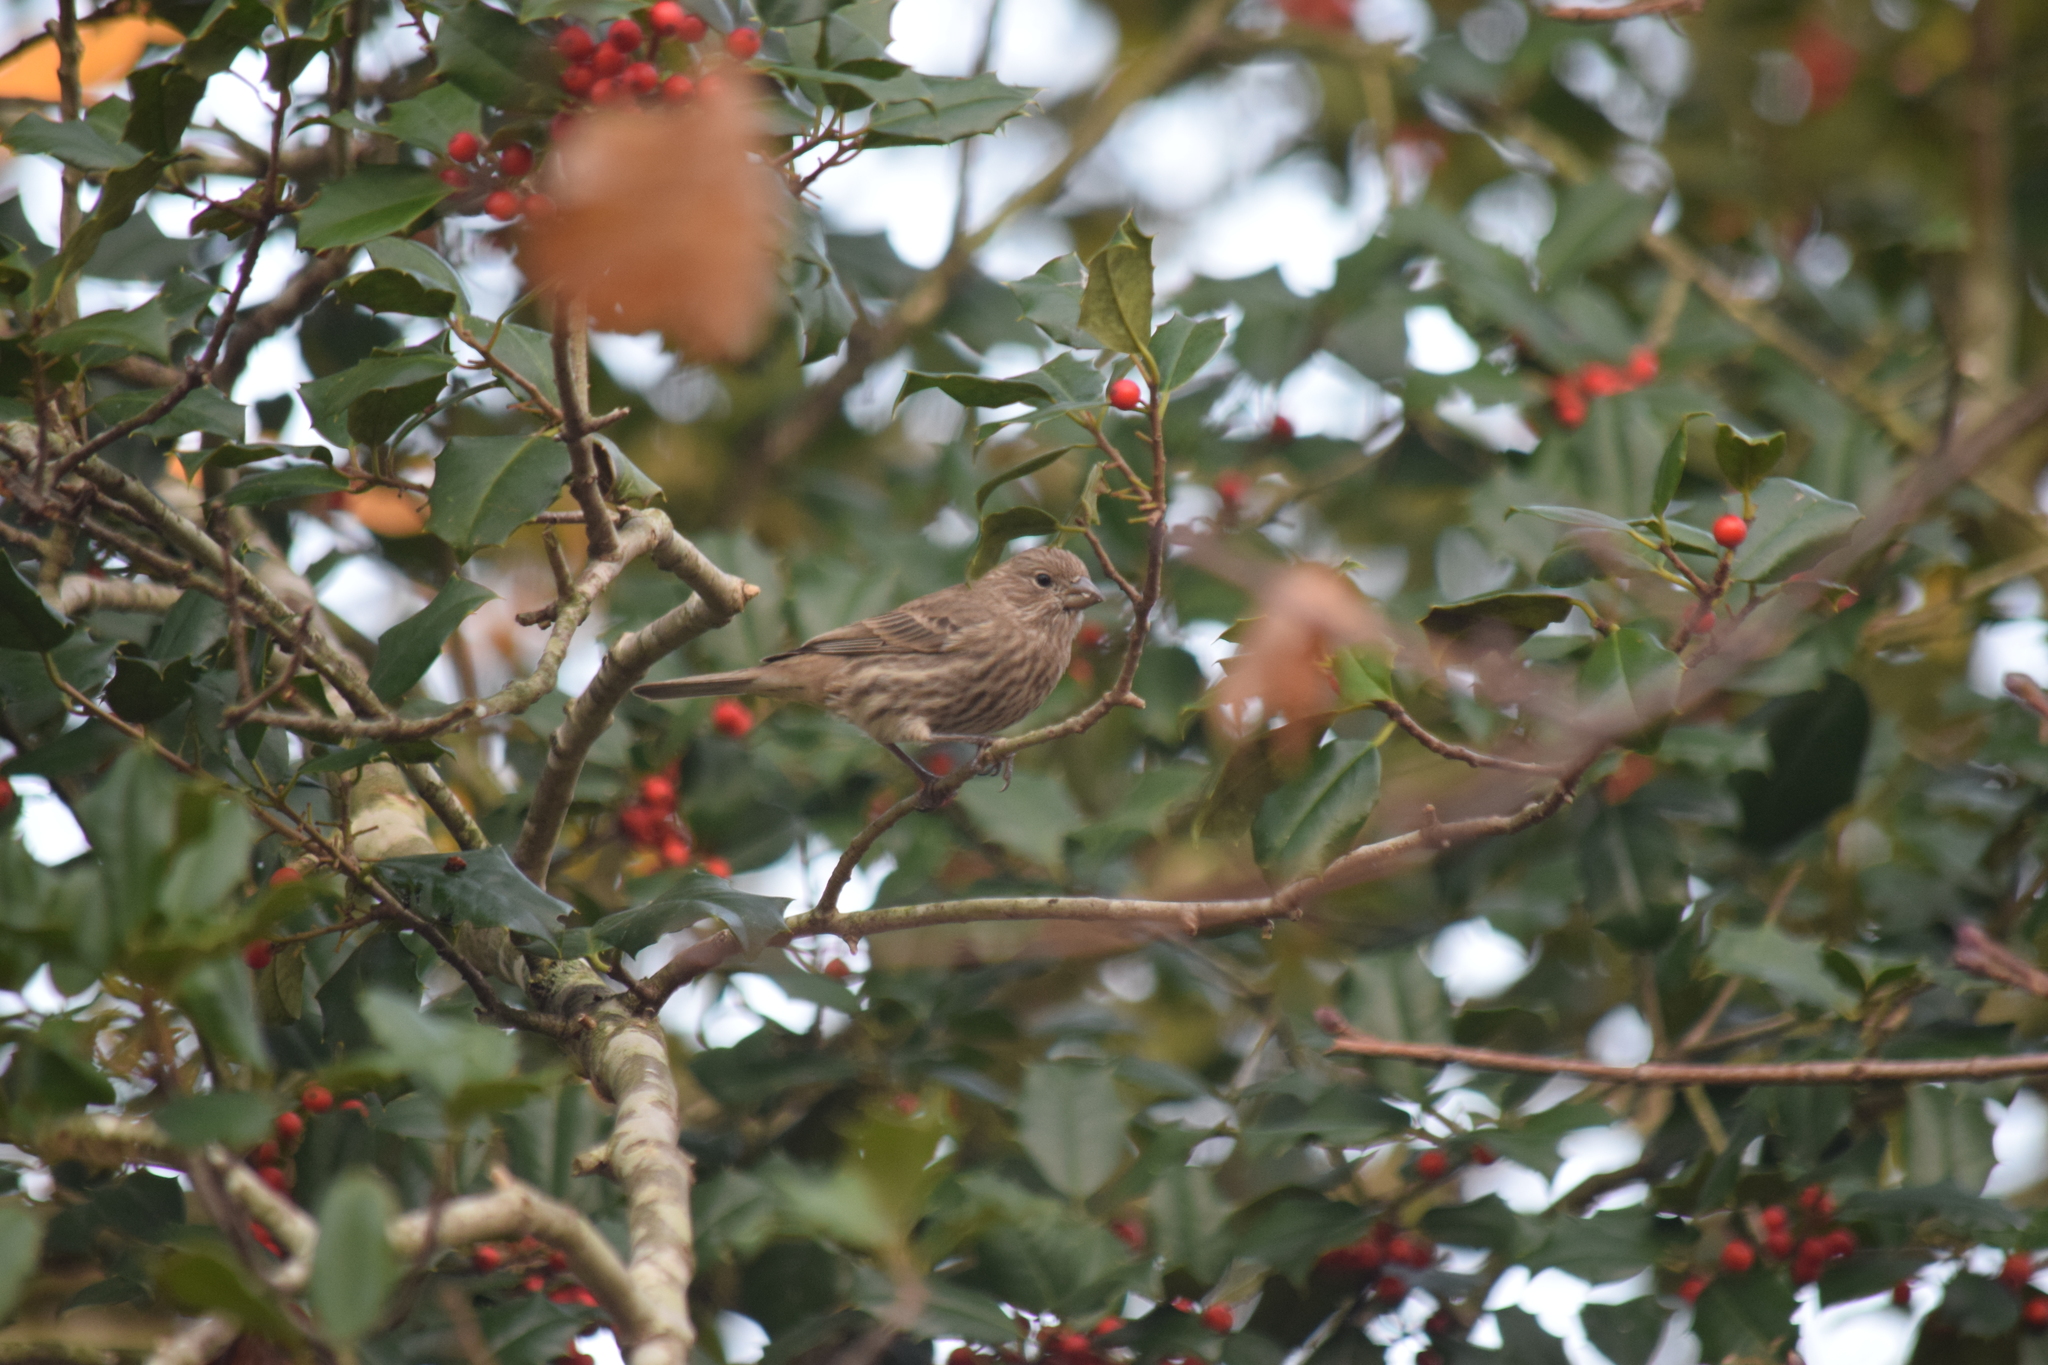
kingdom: Animalia
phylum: Chordata
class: Aves
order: Passeriformes
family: Fringillidae
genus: Haemorhous
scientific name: Haemorhous mexicanus
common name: House finch
